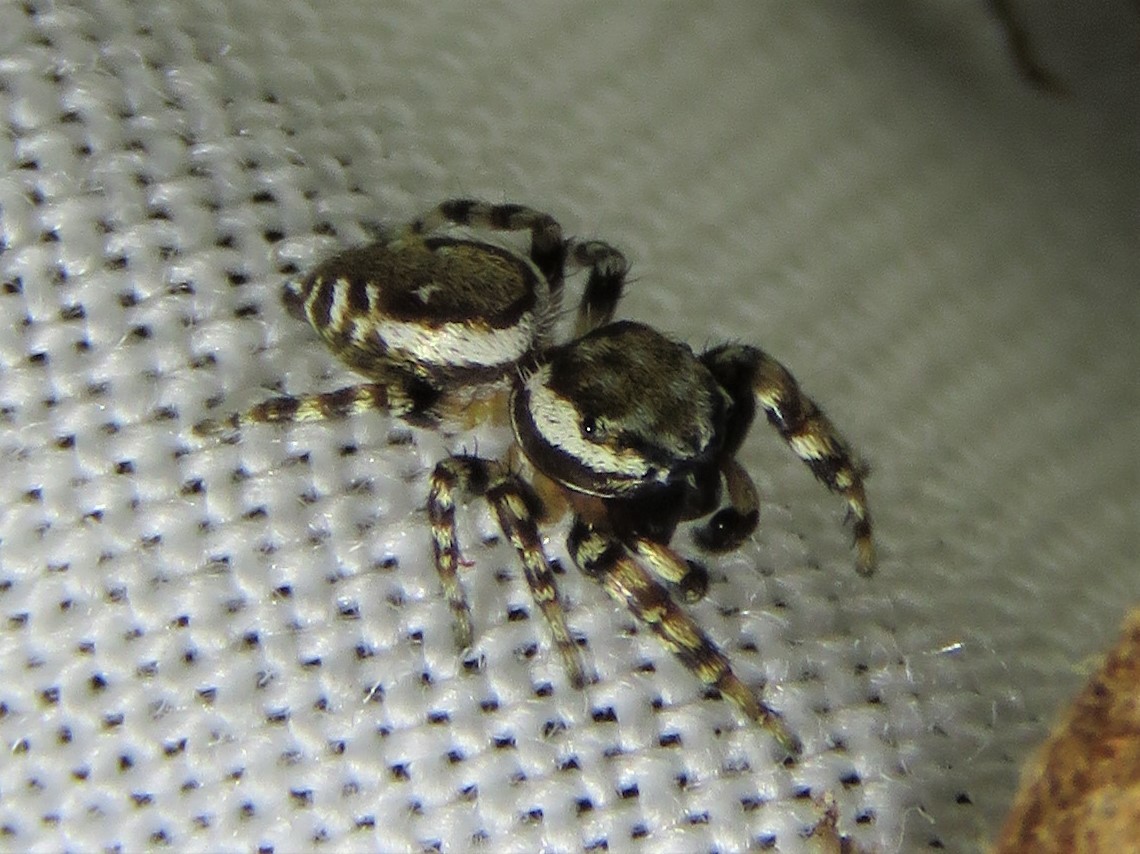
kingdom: Animalia
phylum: Arthropoda
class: Arachnida
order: Araneae
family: Salticidae
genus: Pelegrina
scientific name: Pelegrina galathea
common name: Jumping spiders
